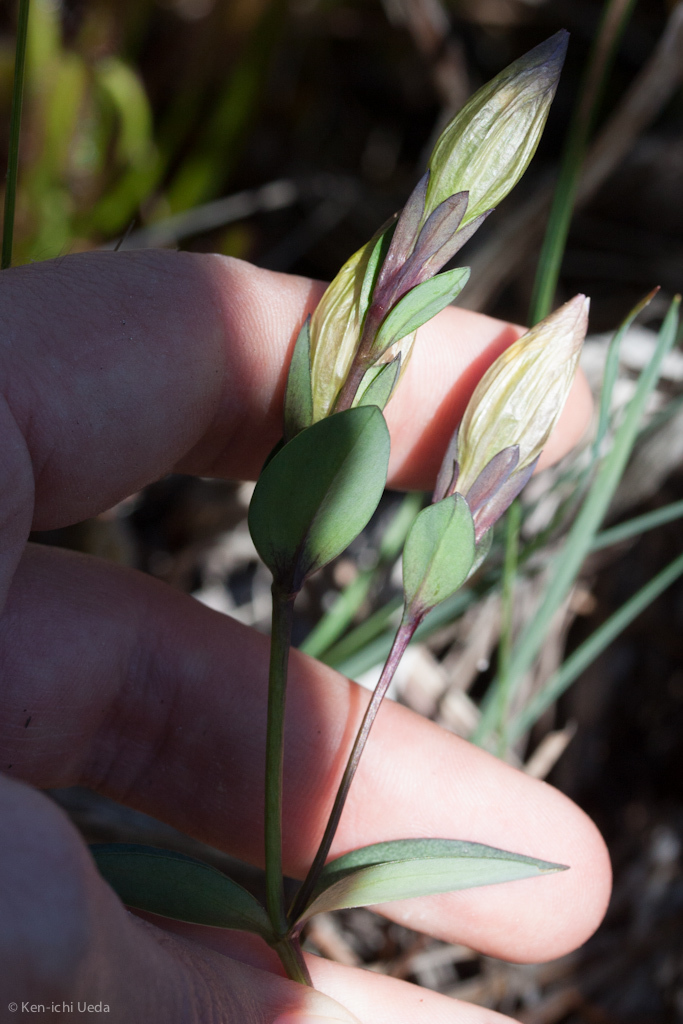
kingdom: Plantae
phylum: Tracheophyta
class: Magnoliopsida
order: Gentianales
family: Gentianaceae
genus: Gentiana
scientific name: Gentiana affinis
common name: Rocky mountain gentian
